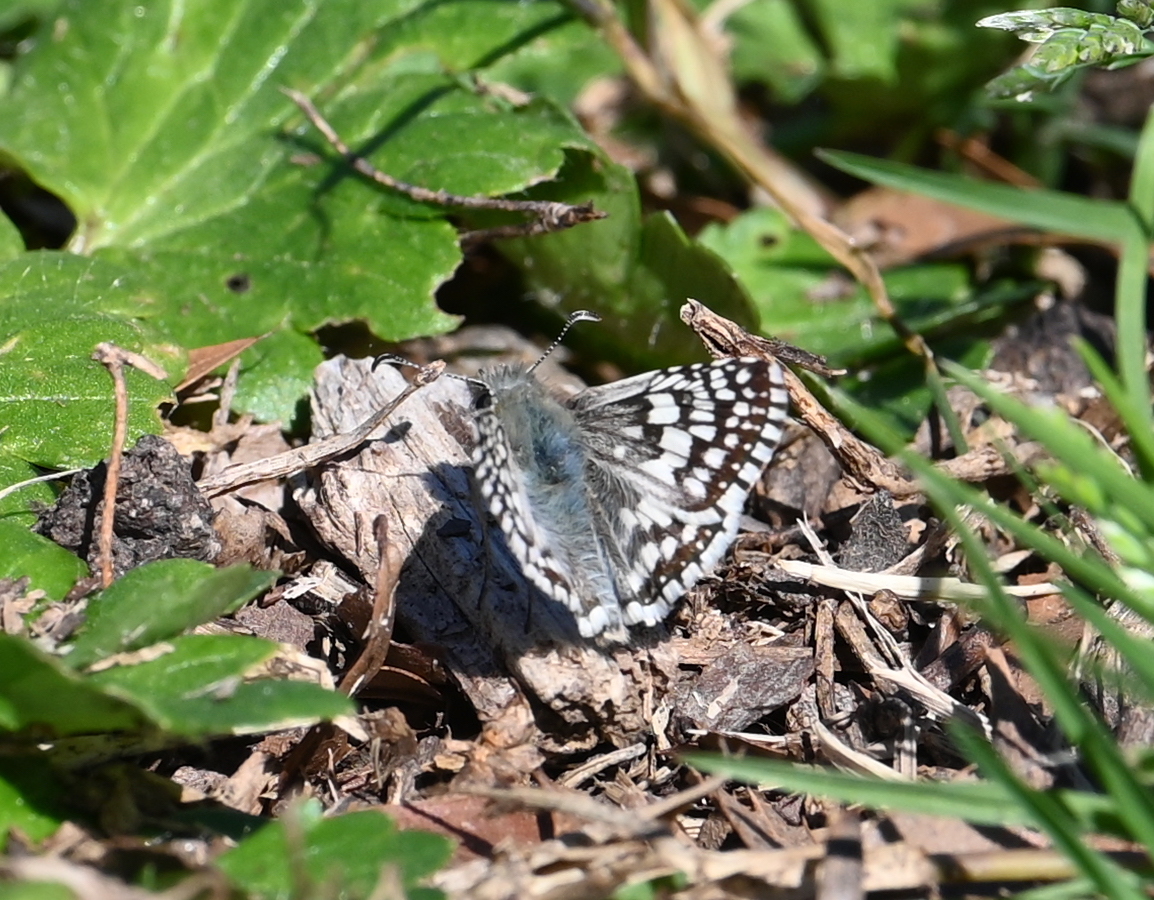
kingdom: Animalia
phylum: Arthropoda
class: Insecta
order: Lepidoptera
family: Hesperiidae
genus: Burnsius
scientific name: Burnsius communis
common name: Common checkered-skipper
